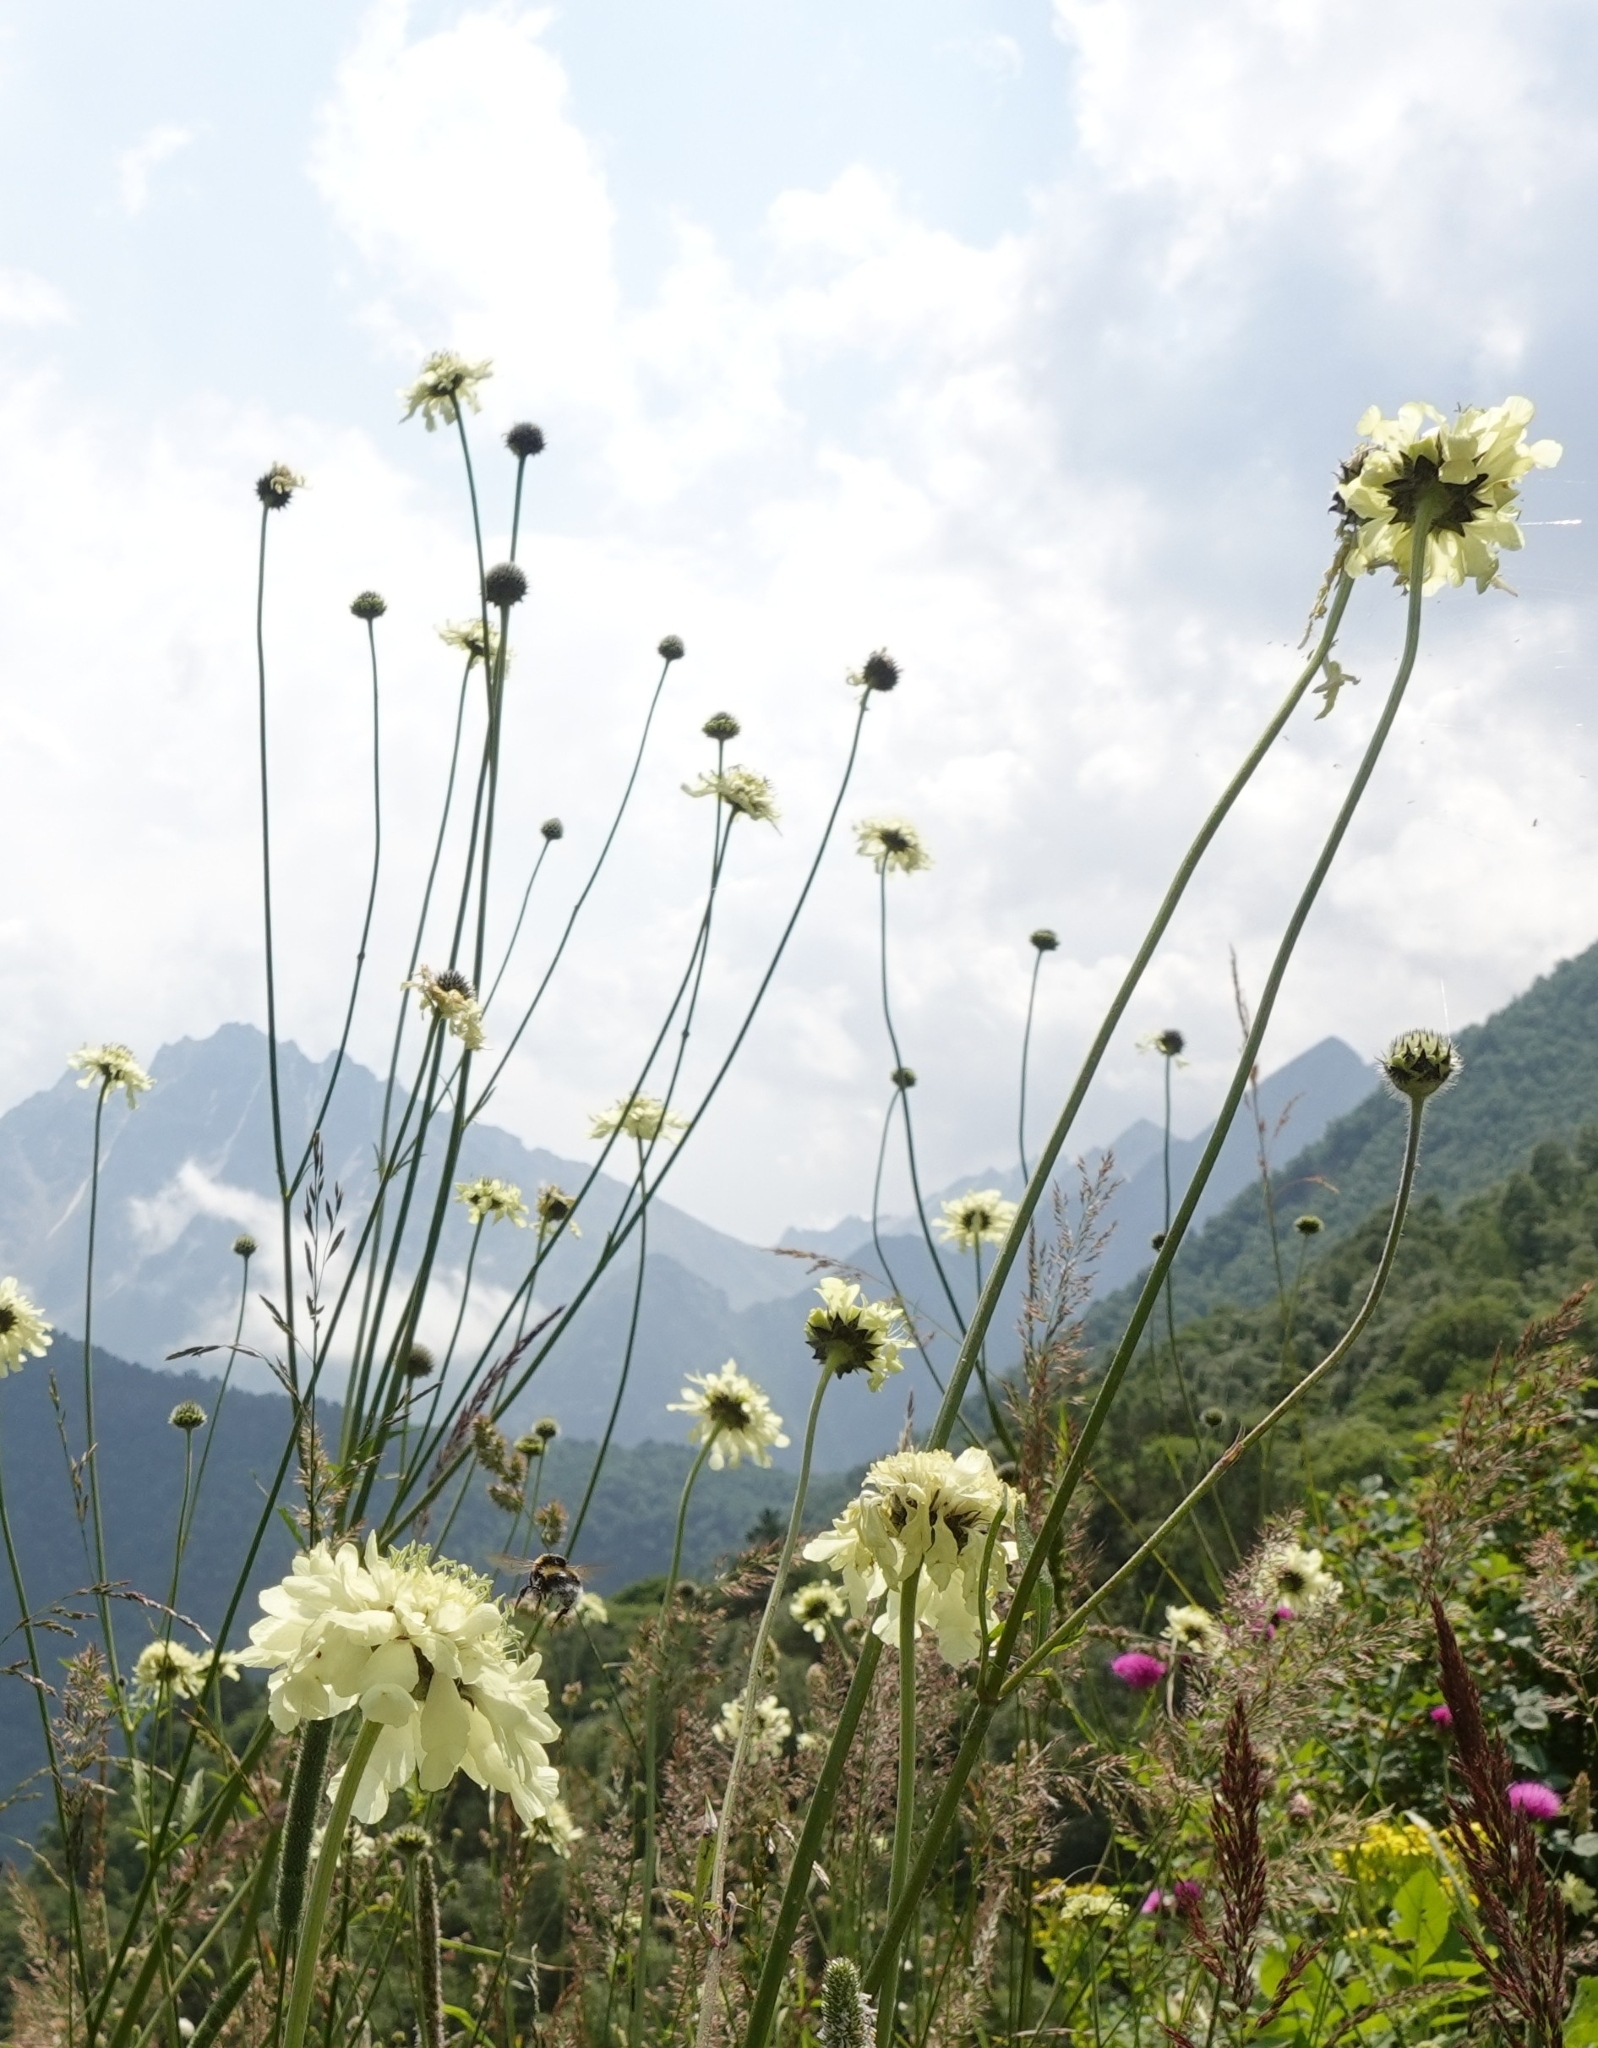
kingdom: Plantae
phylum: Tracheophyta
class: Magnoliopsida
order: Dipsacales
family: Caprifoliaceae
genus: Cephalaria
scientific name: Cephalaria gigantea
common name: Tatarian cephalaria
